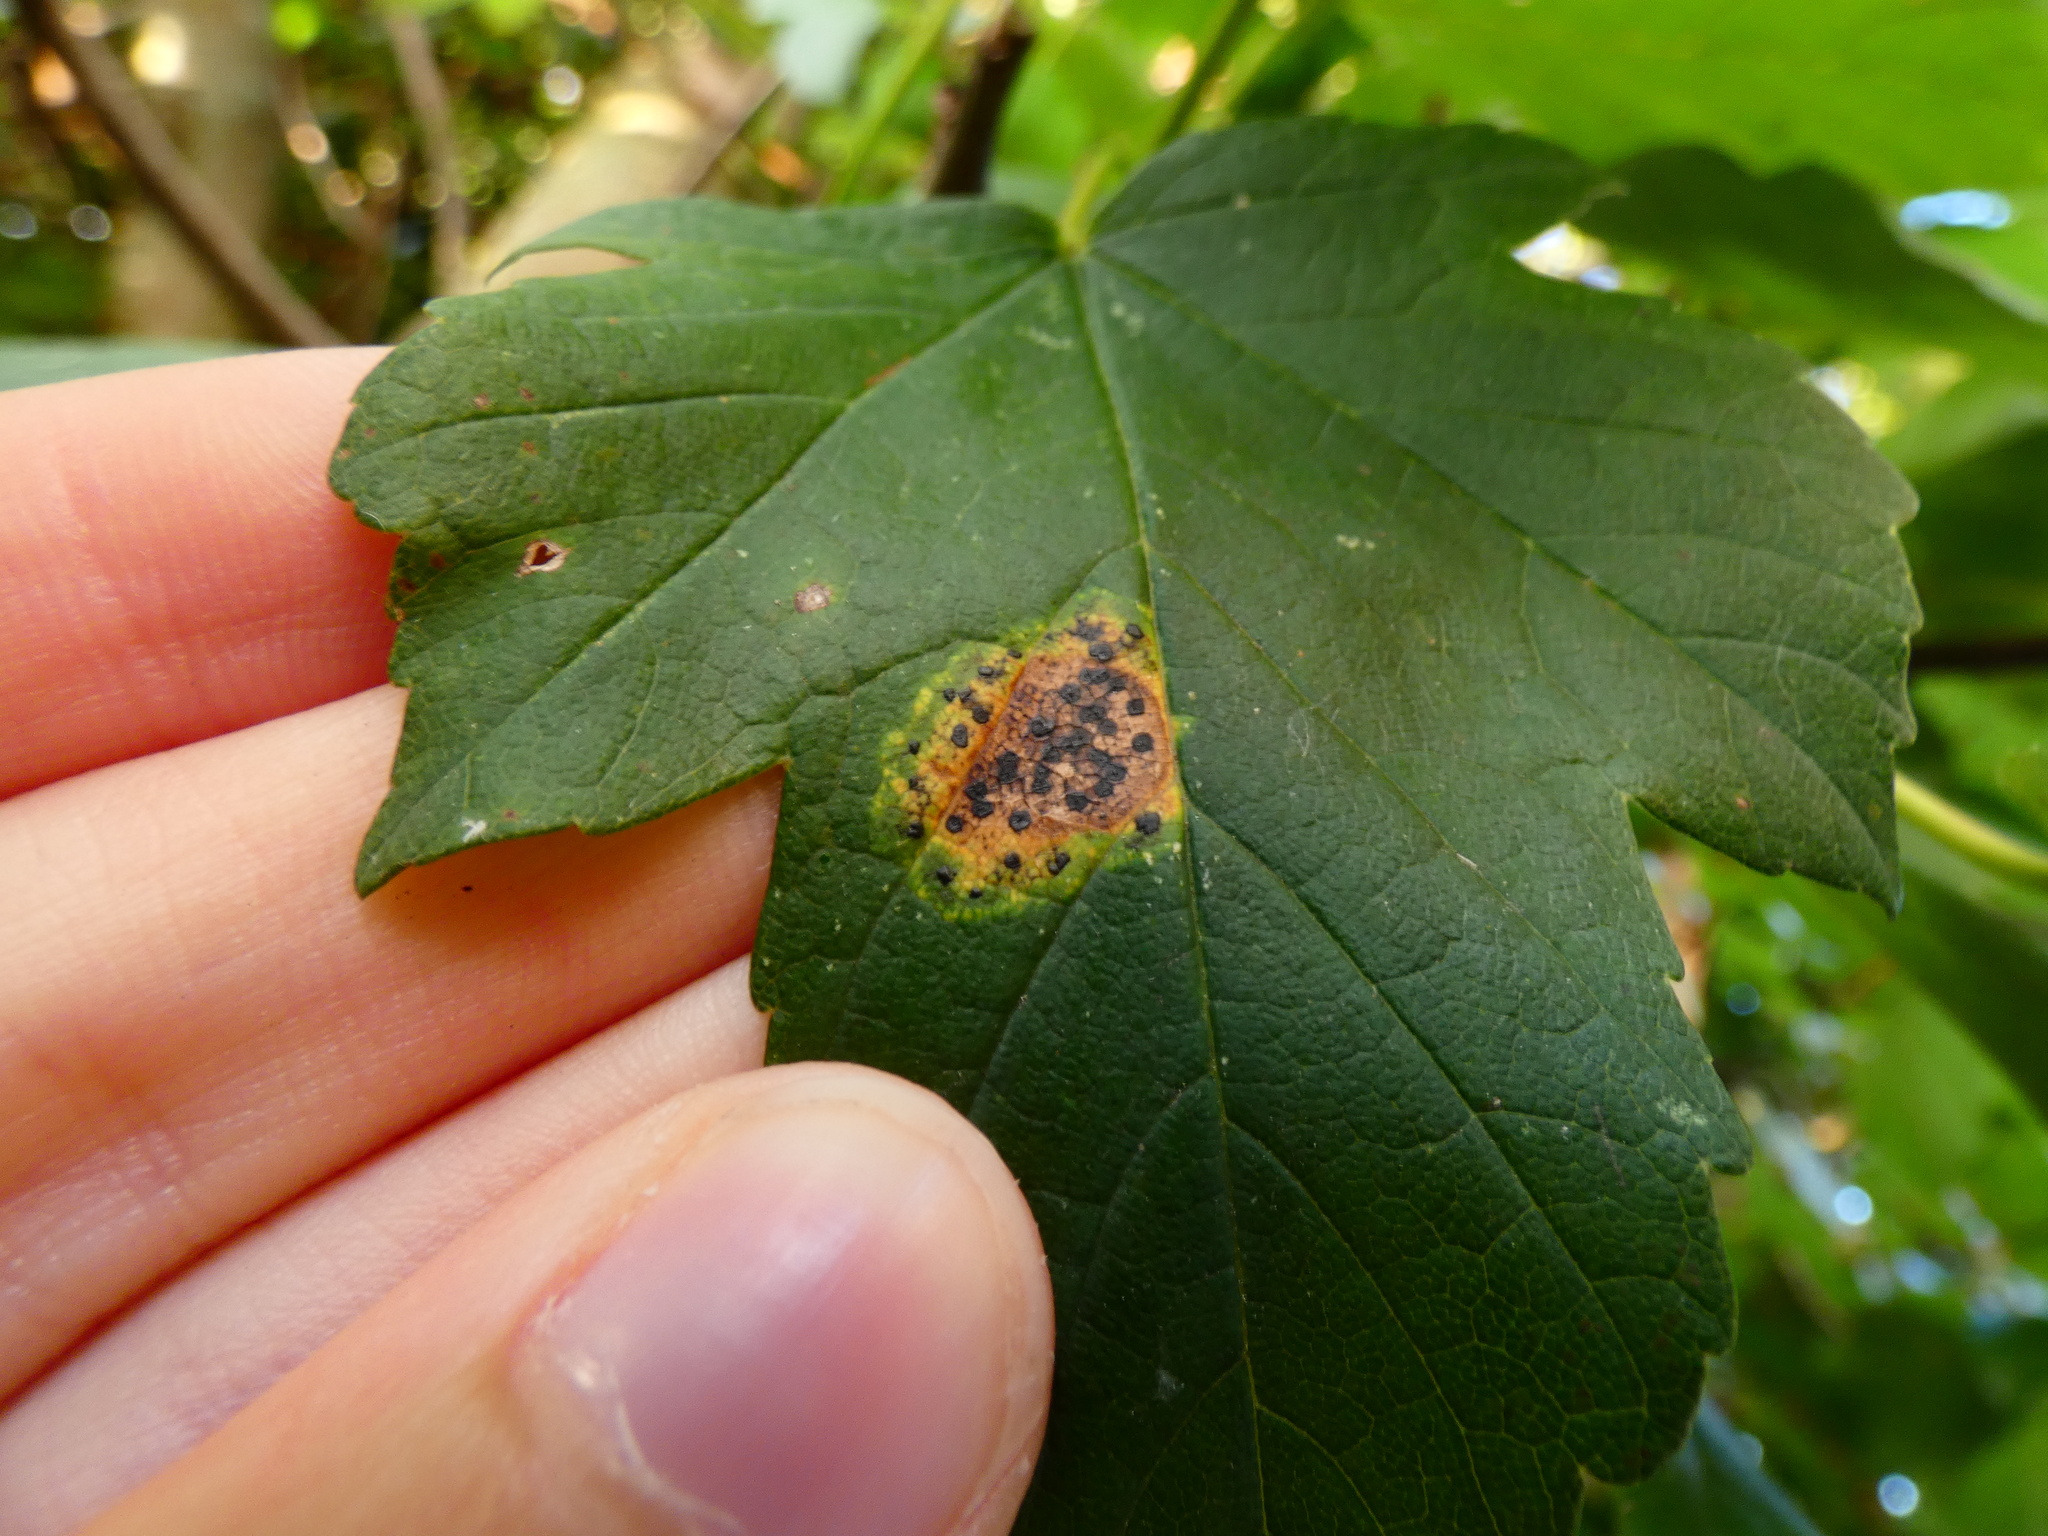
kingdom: Fungi
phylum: Ascomycota
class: Leotiomycetes
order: Rhytismatales
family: Rhytismataceae
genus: Rhytisma
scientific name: Rhytisma acerinum
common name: European tar spot
